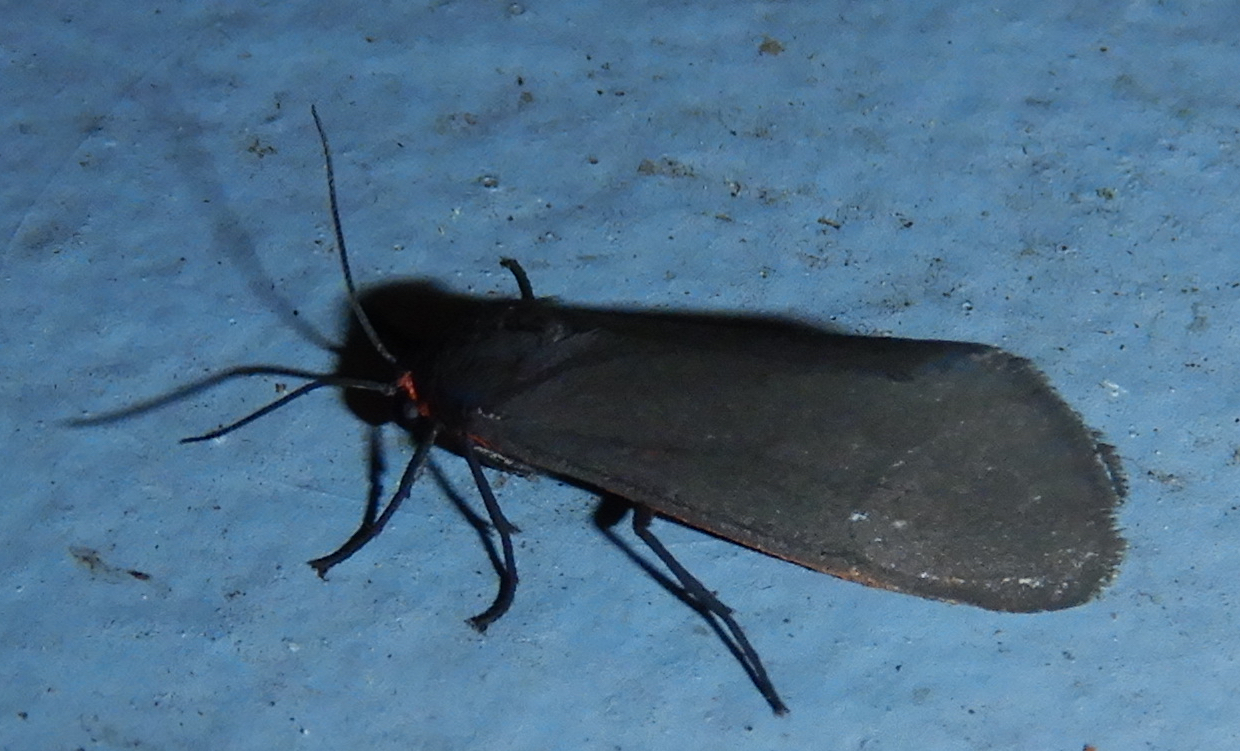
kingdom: Animalia
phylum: Arthropoda
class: Insecta
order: Lepidoptera
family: Erebidae
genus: Virbia
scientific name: Virbia laeta
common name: Joyful holomelina moth
